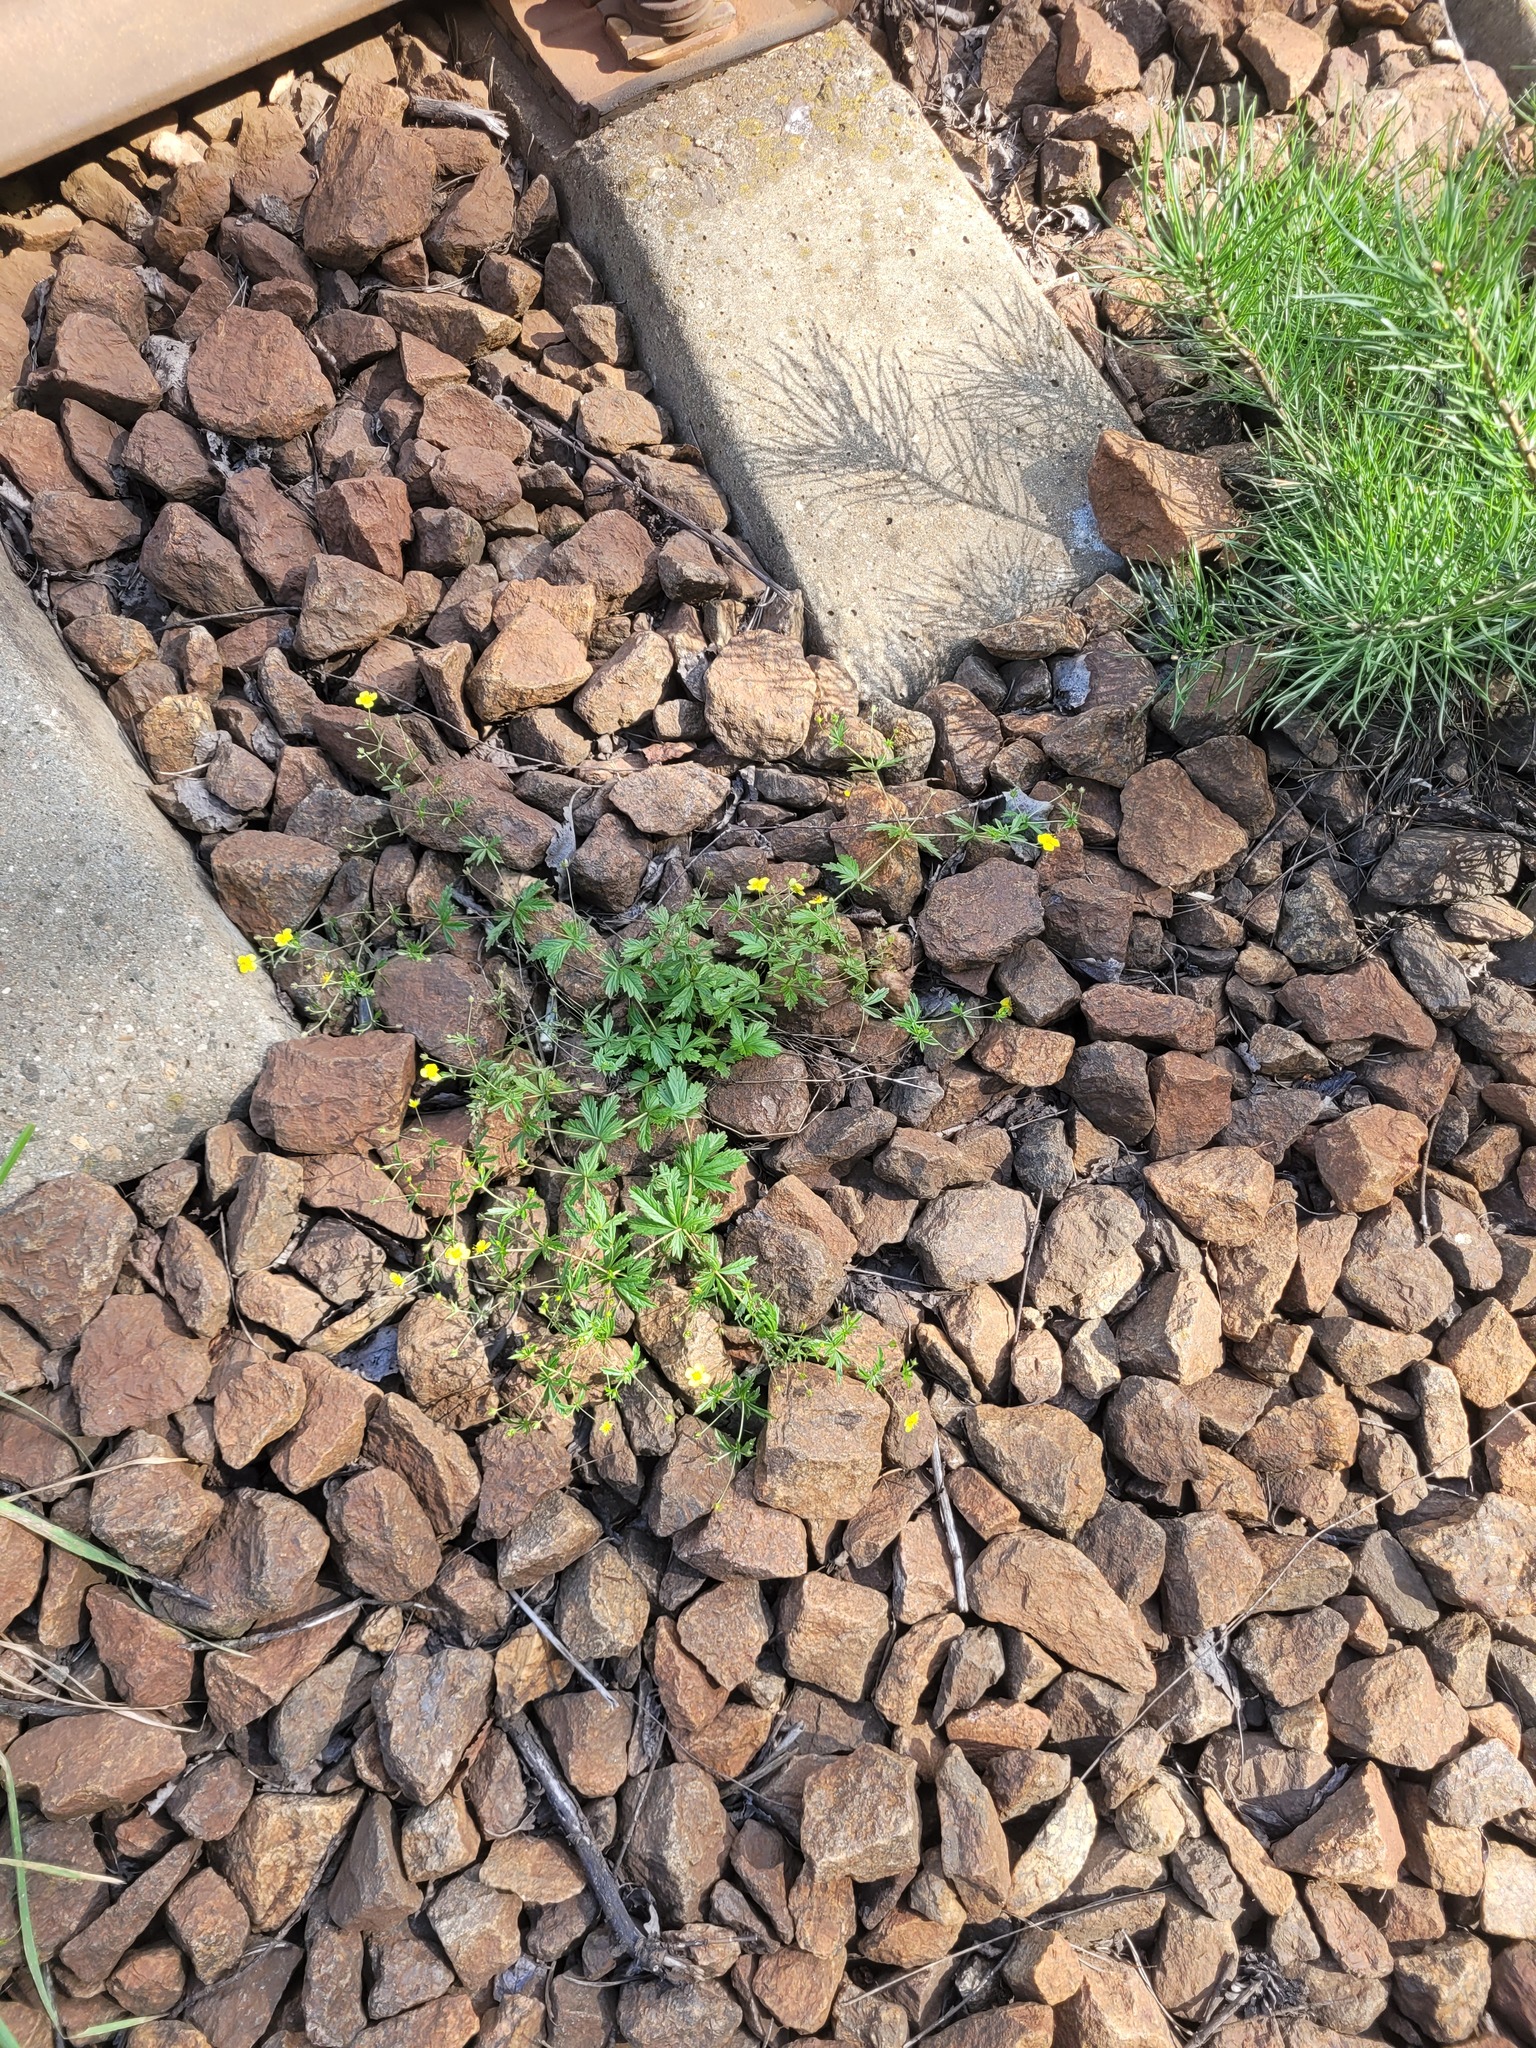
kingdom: Plantae
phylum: Tracheophyta
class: Magnoliopsida
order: Rosales
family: Rosaceae
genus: Potentilla
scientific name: Potentilla erecta
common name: Tormentil
